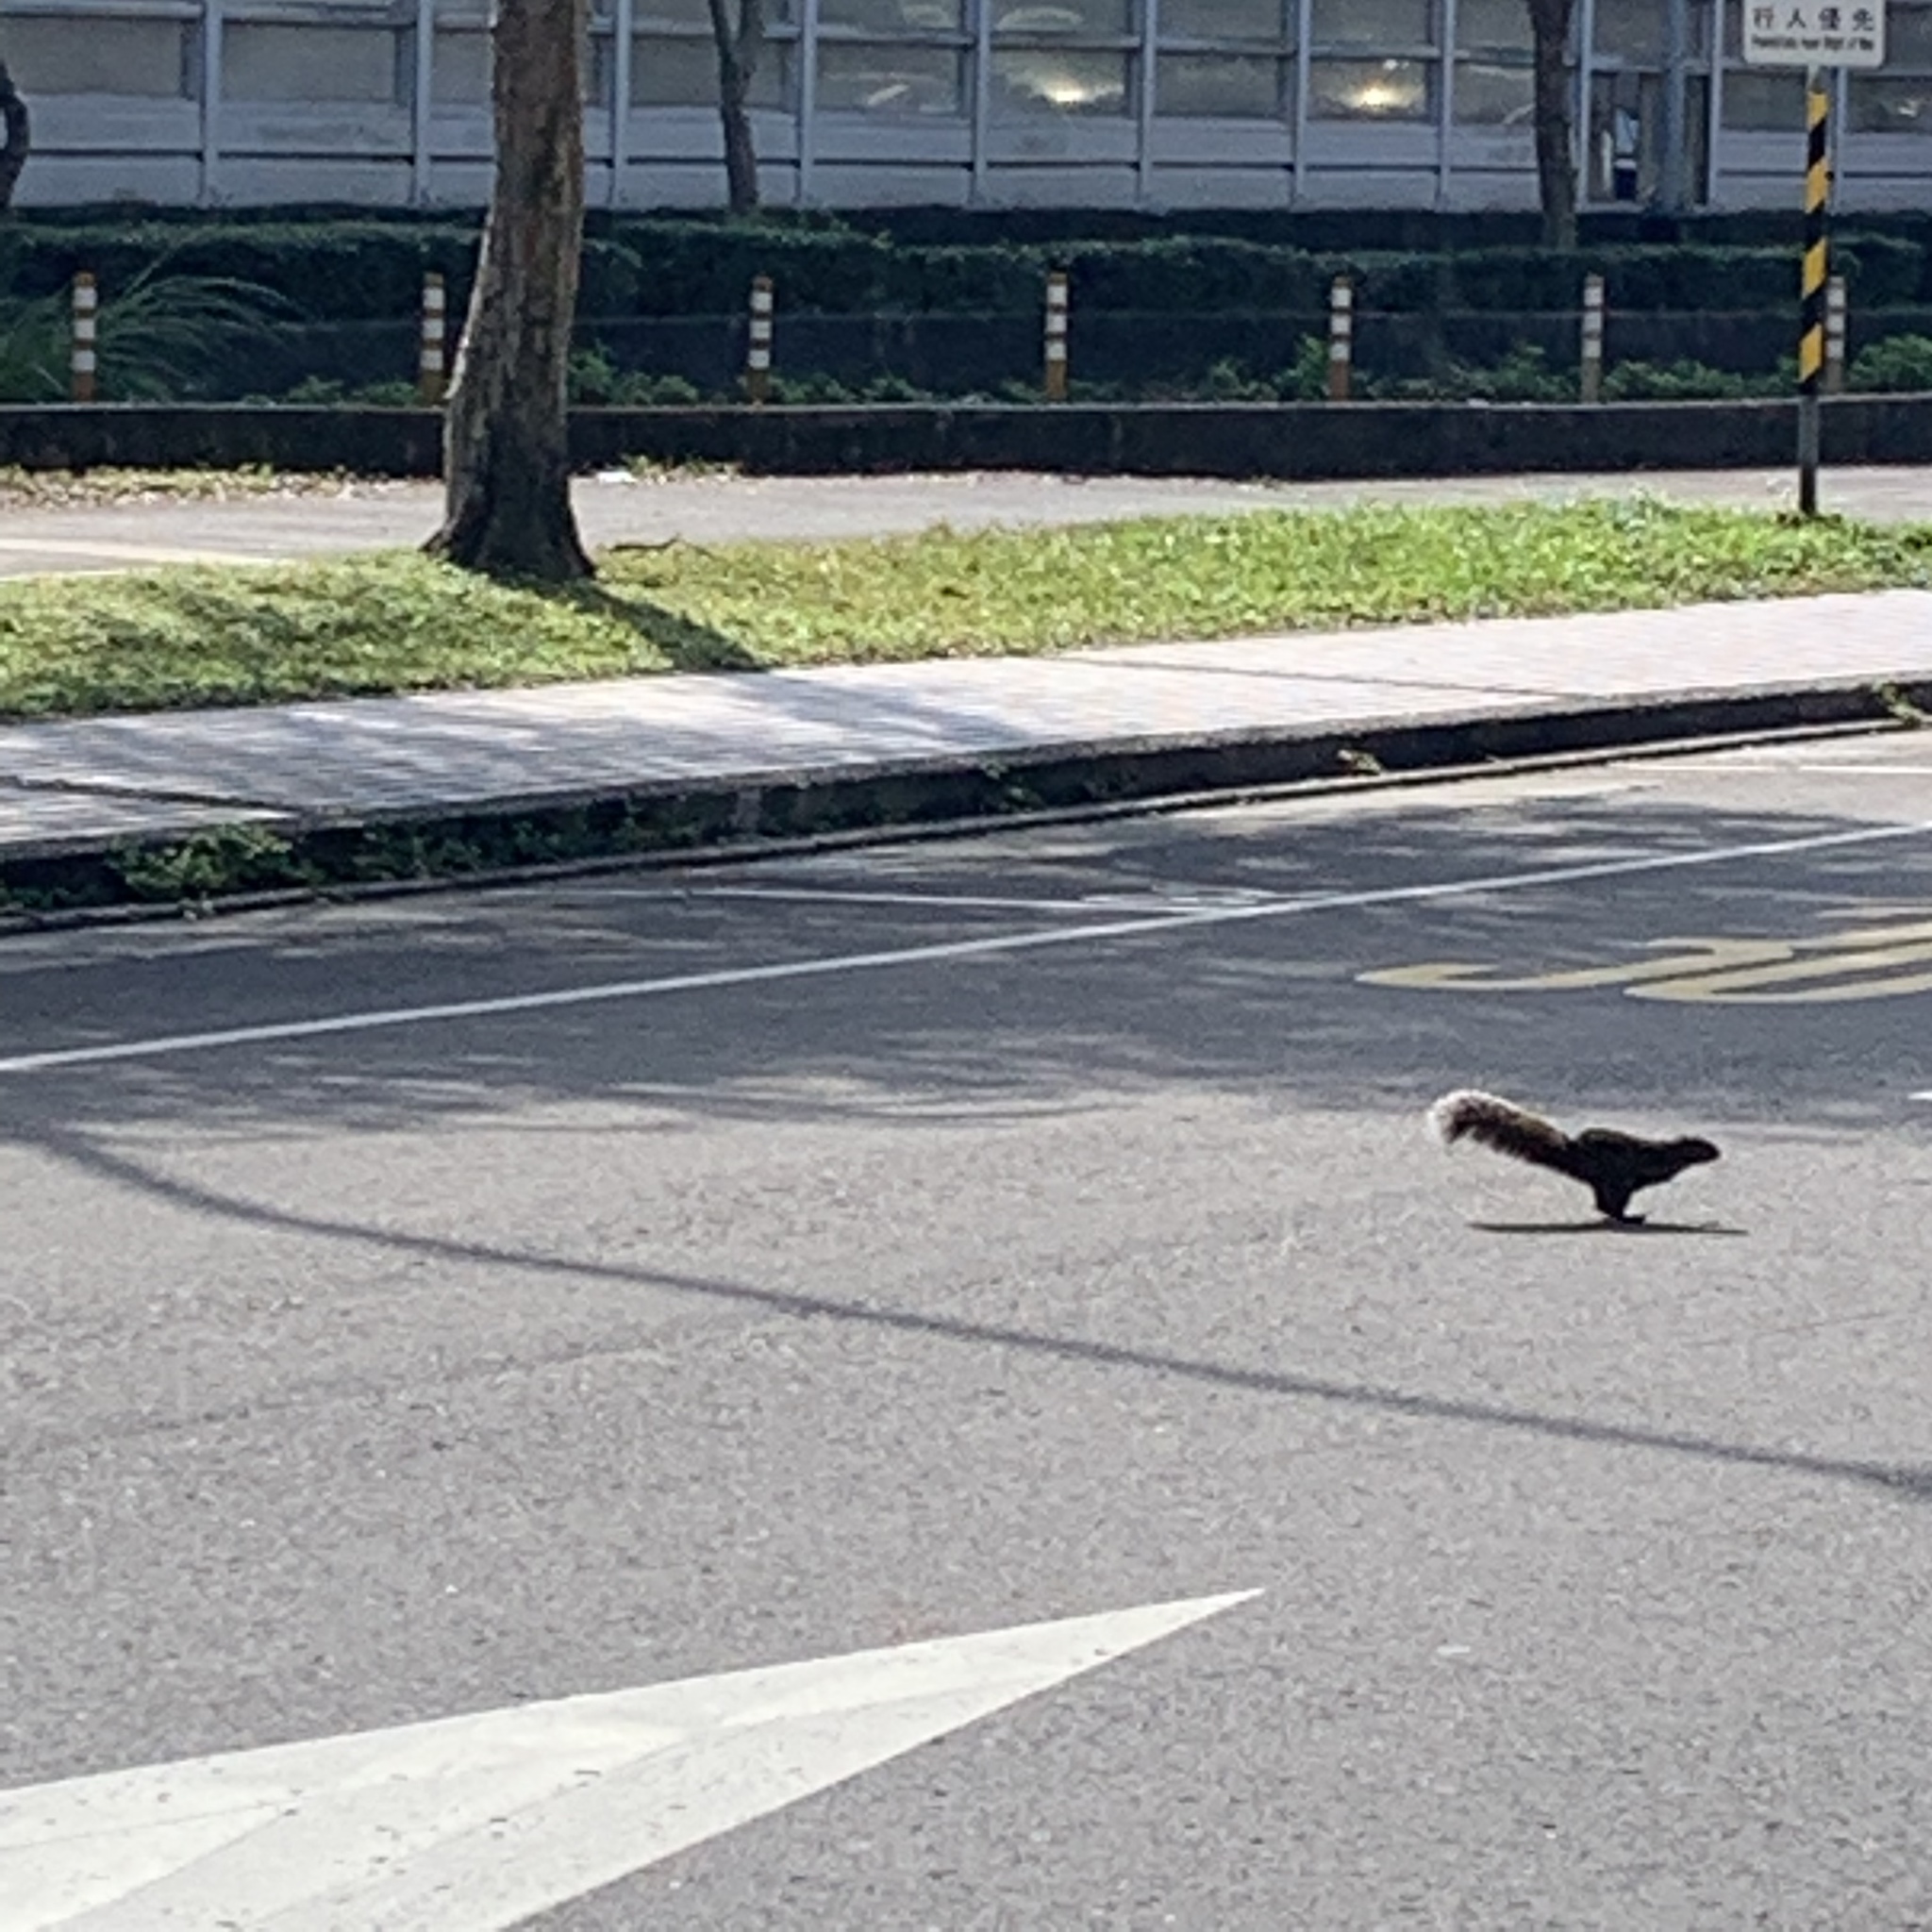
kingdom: Animalia
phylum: Chordata
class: Mammalia
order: Rodentia
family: Sciuridae
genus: Callosciurus
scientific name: Callosciurus erythraeus
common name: Pallas's squirrel
